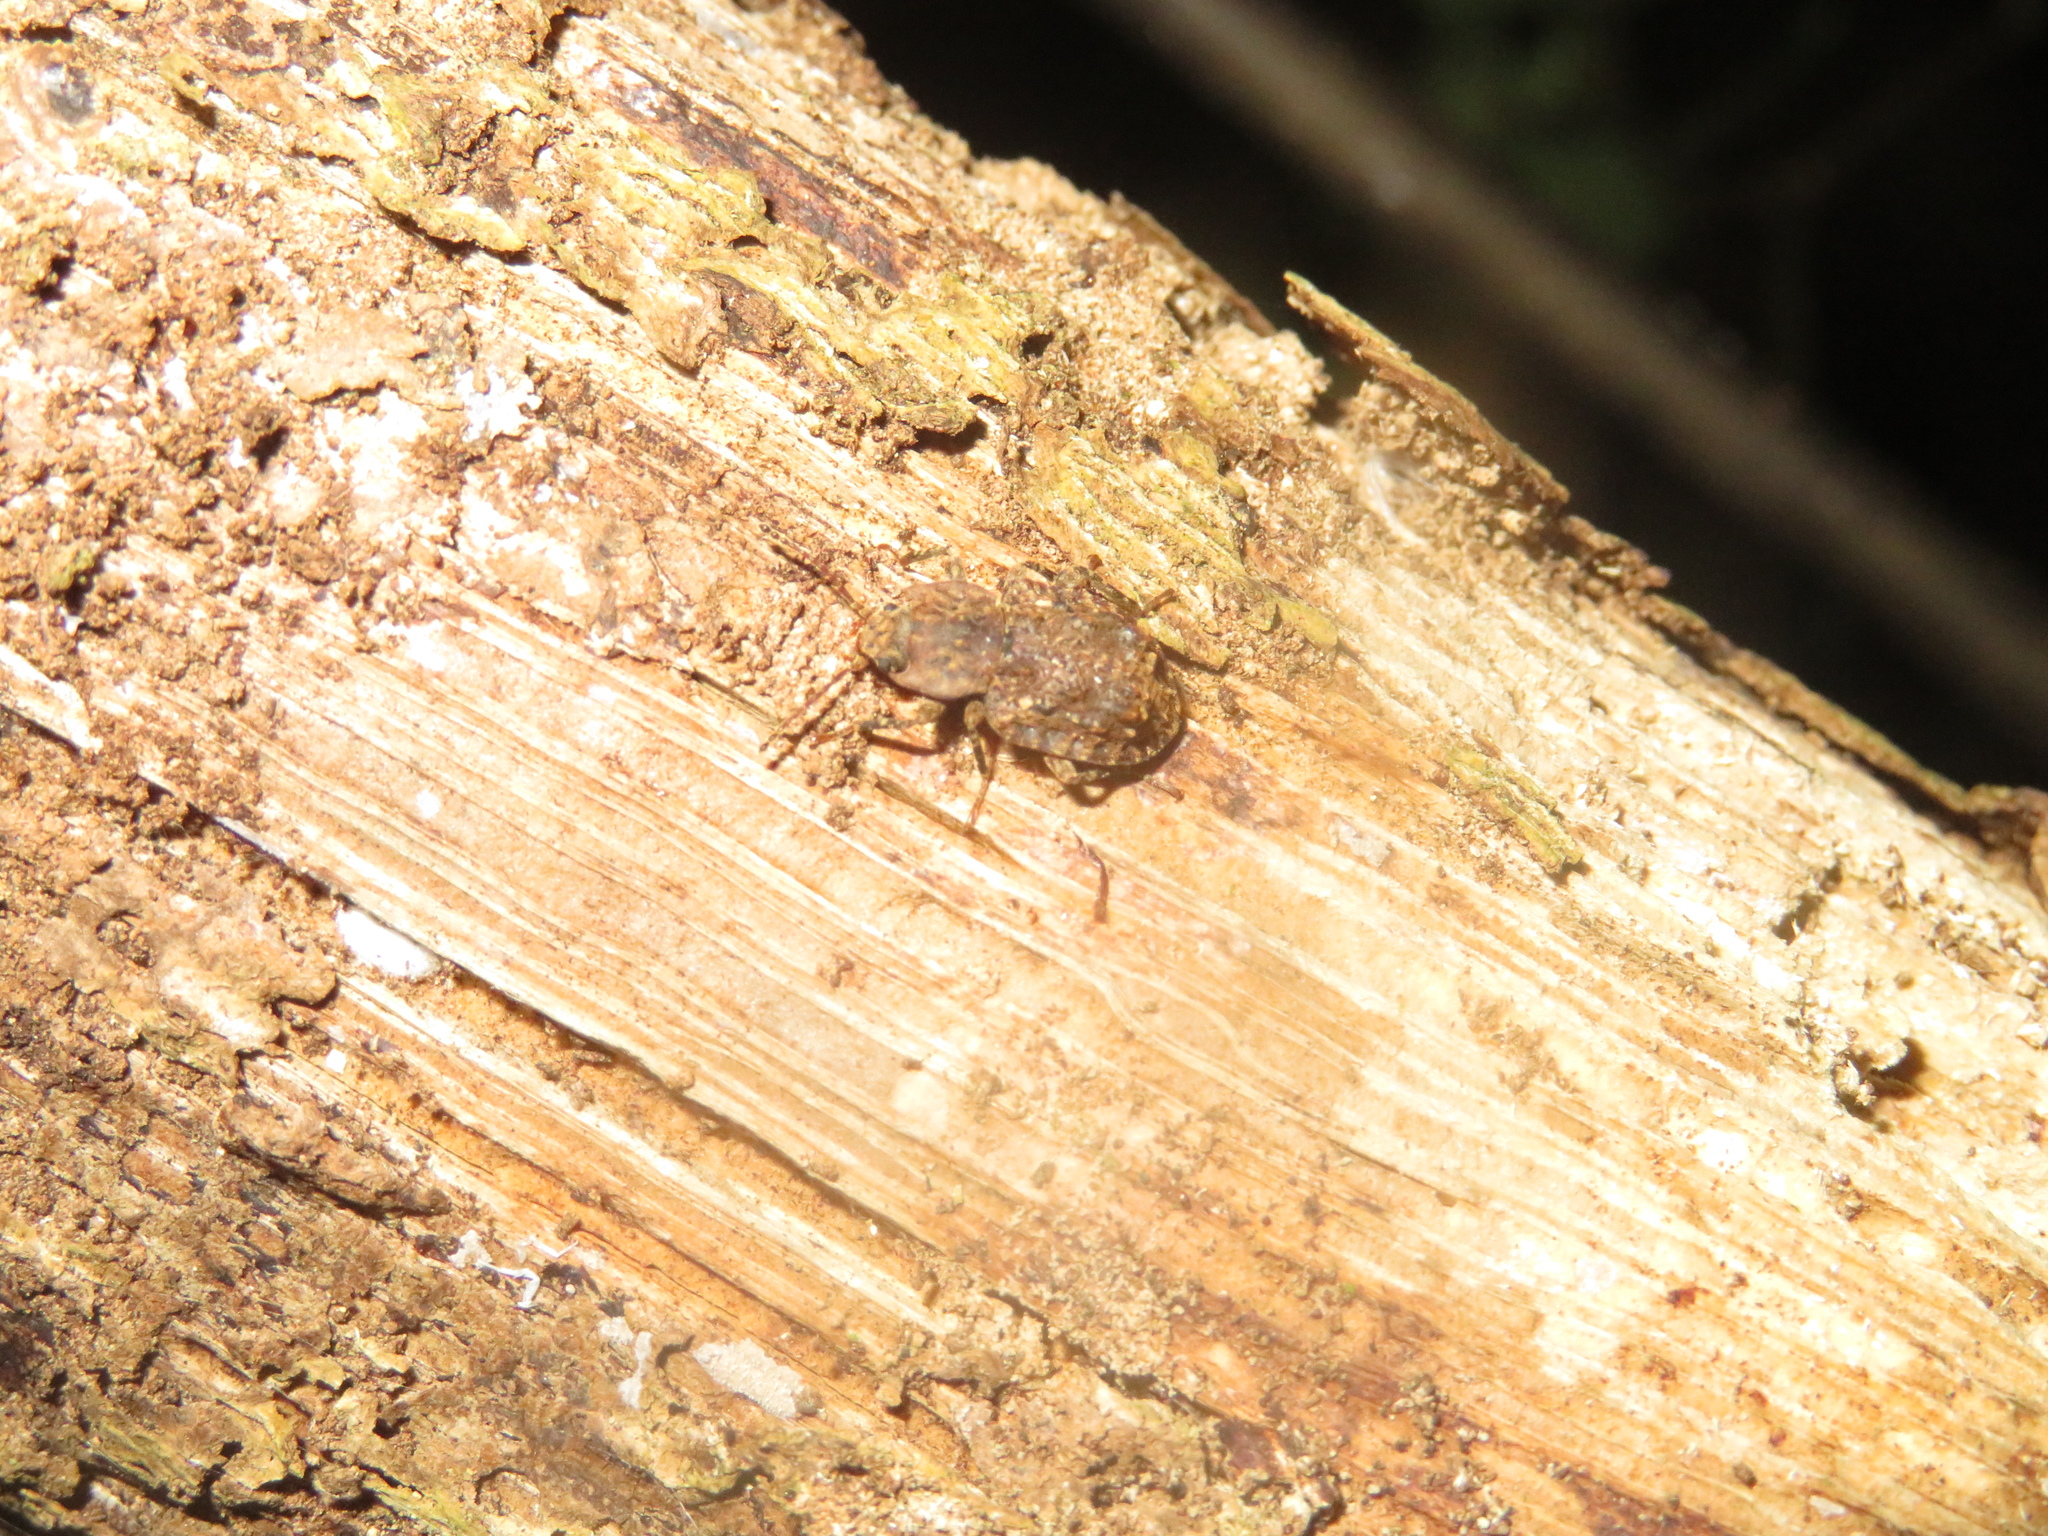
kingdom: Animalia
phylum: Arthropoda
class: Insecta
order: Coleoptera
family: Ulodidae
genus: Syrphetodes
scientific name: Syrphetodes marginatus
